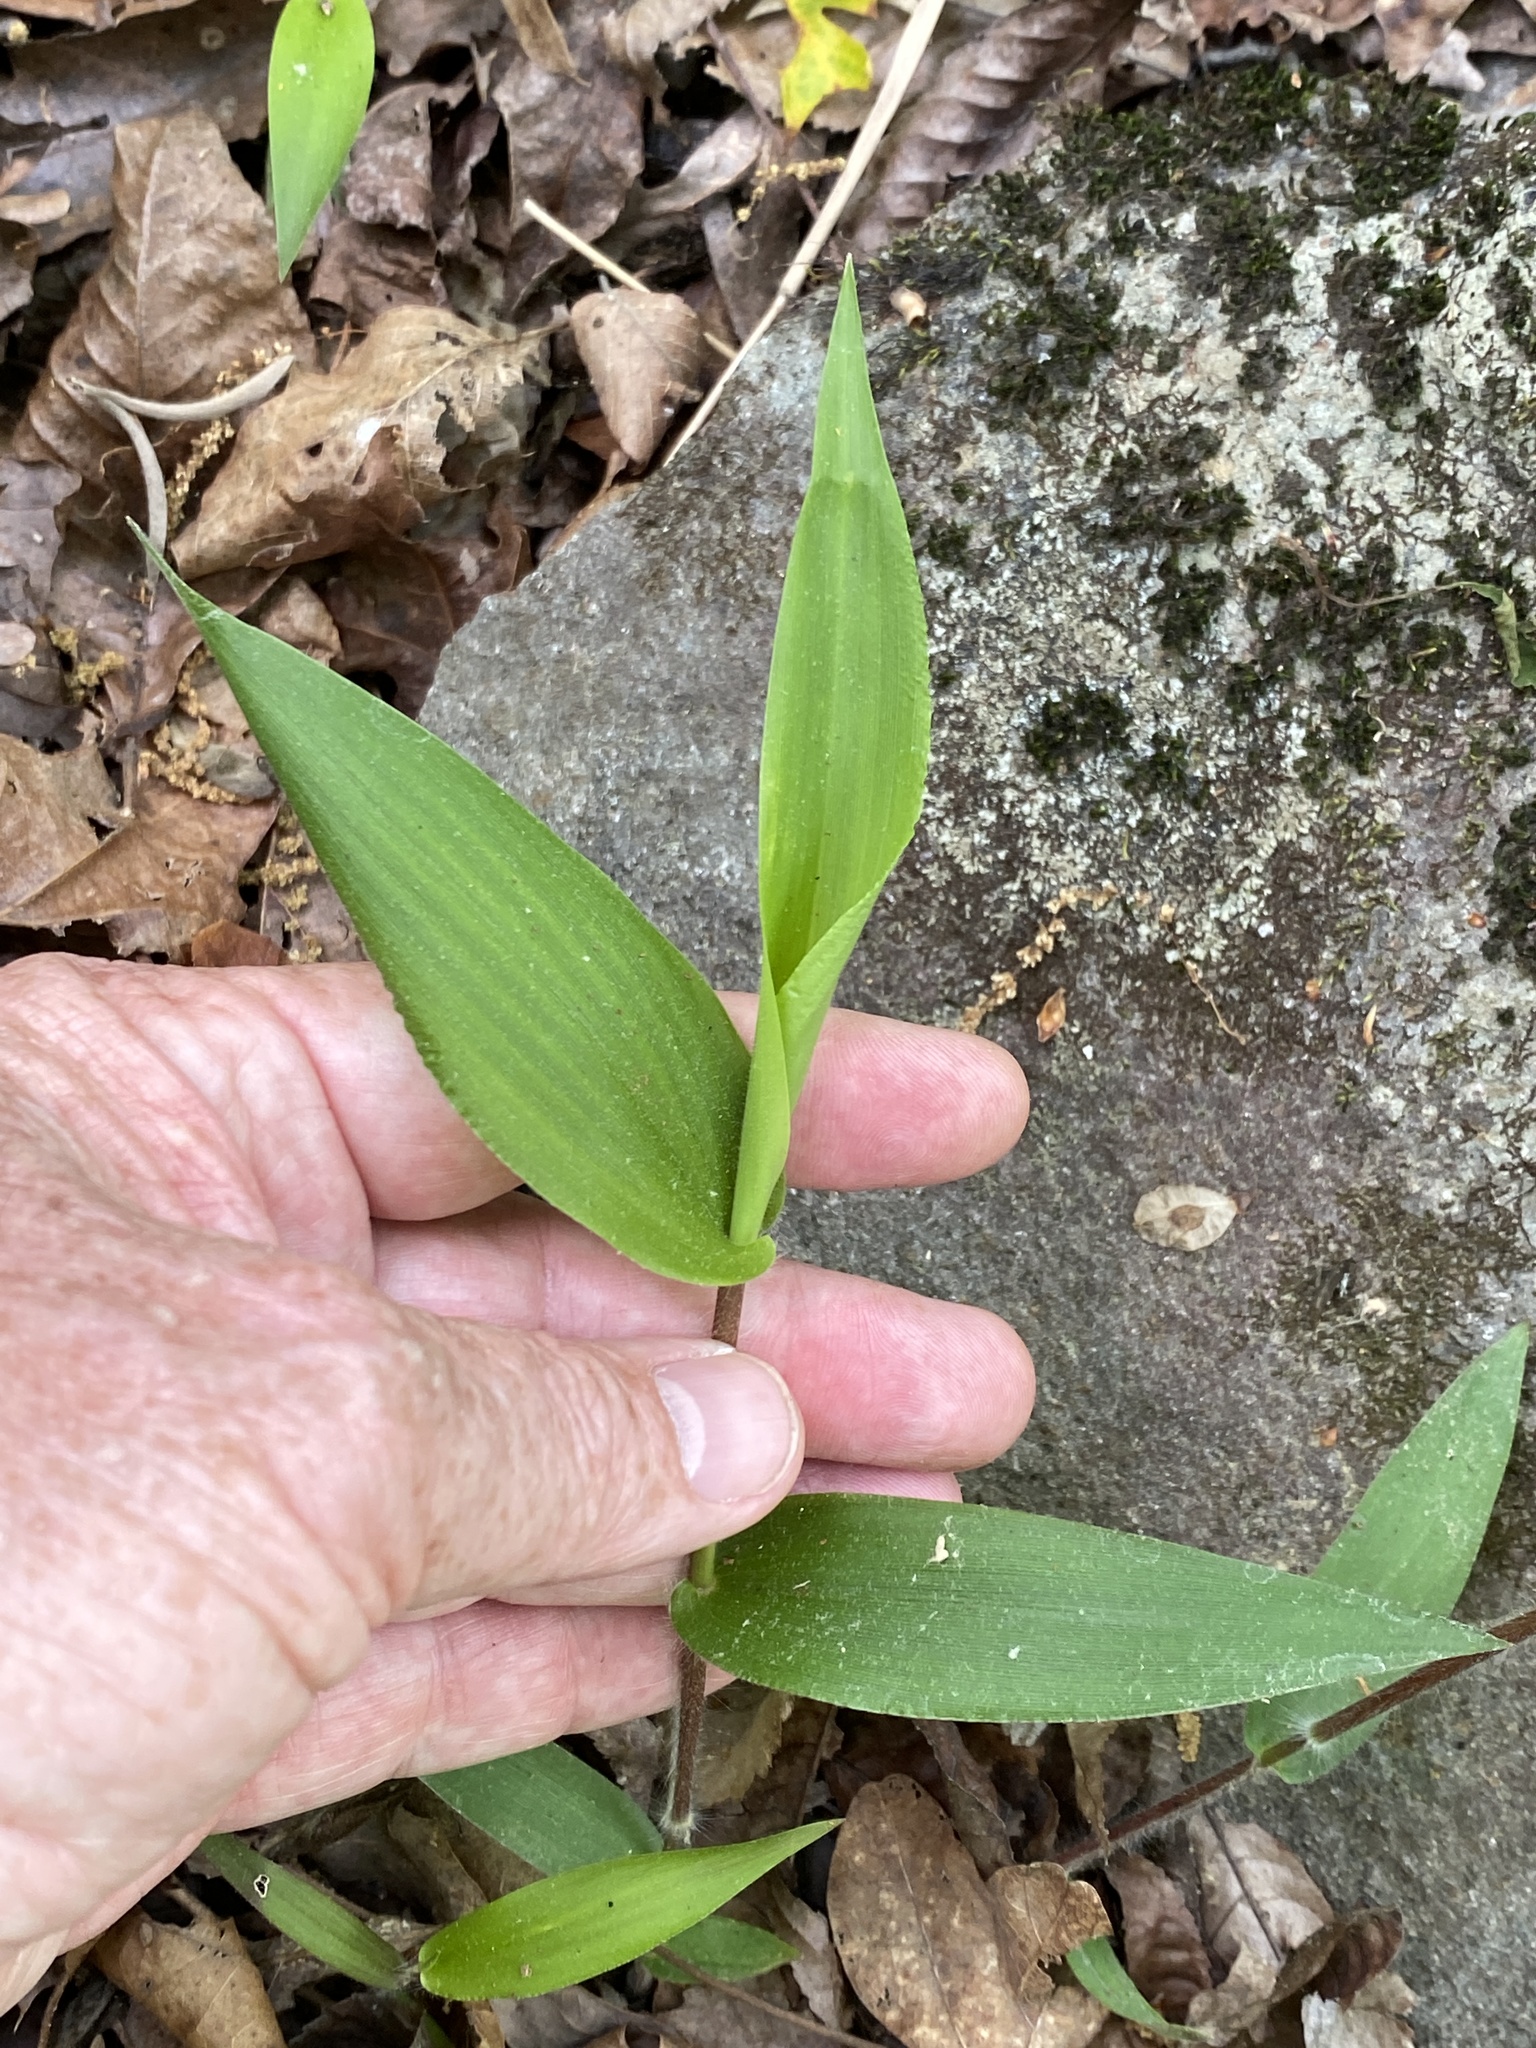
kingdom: Plantae
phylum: Tracheophyta
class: Liliopsida
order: Poales
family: Poaceae
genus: Dichanthelium
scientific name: Dichanthelium boscii
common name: Bosc's panic grass
